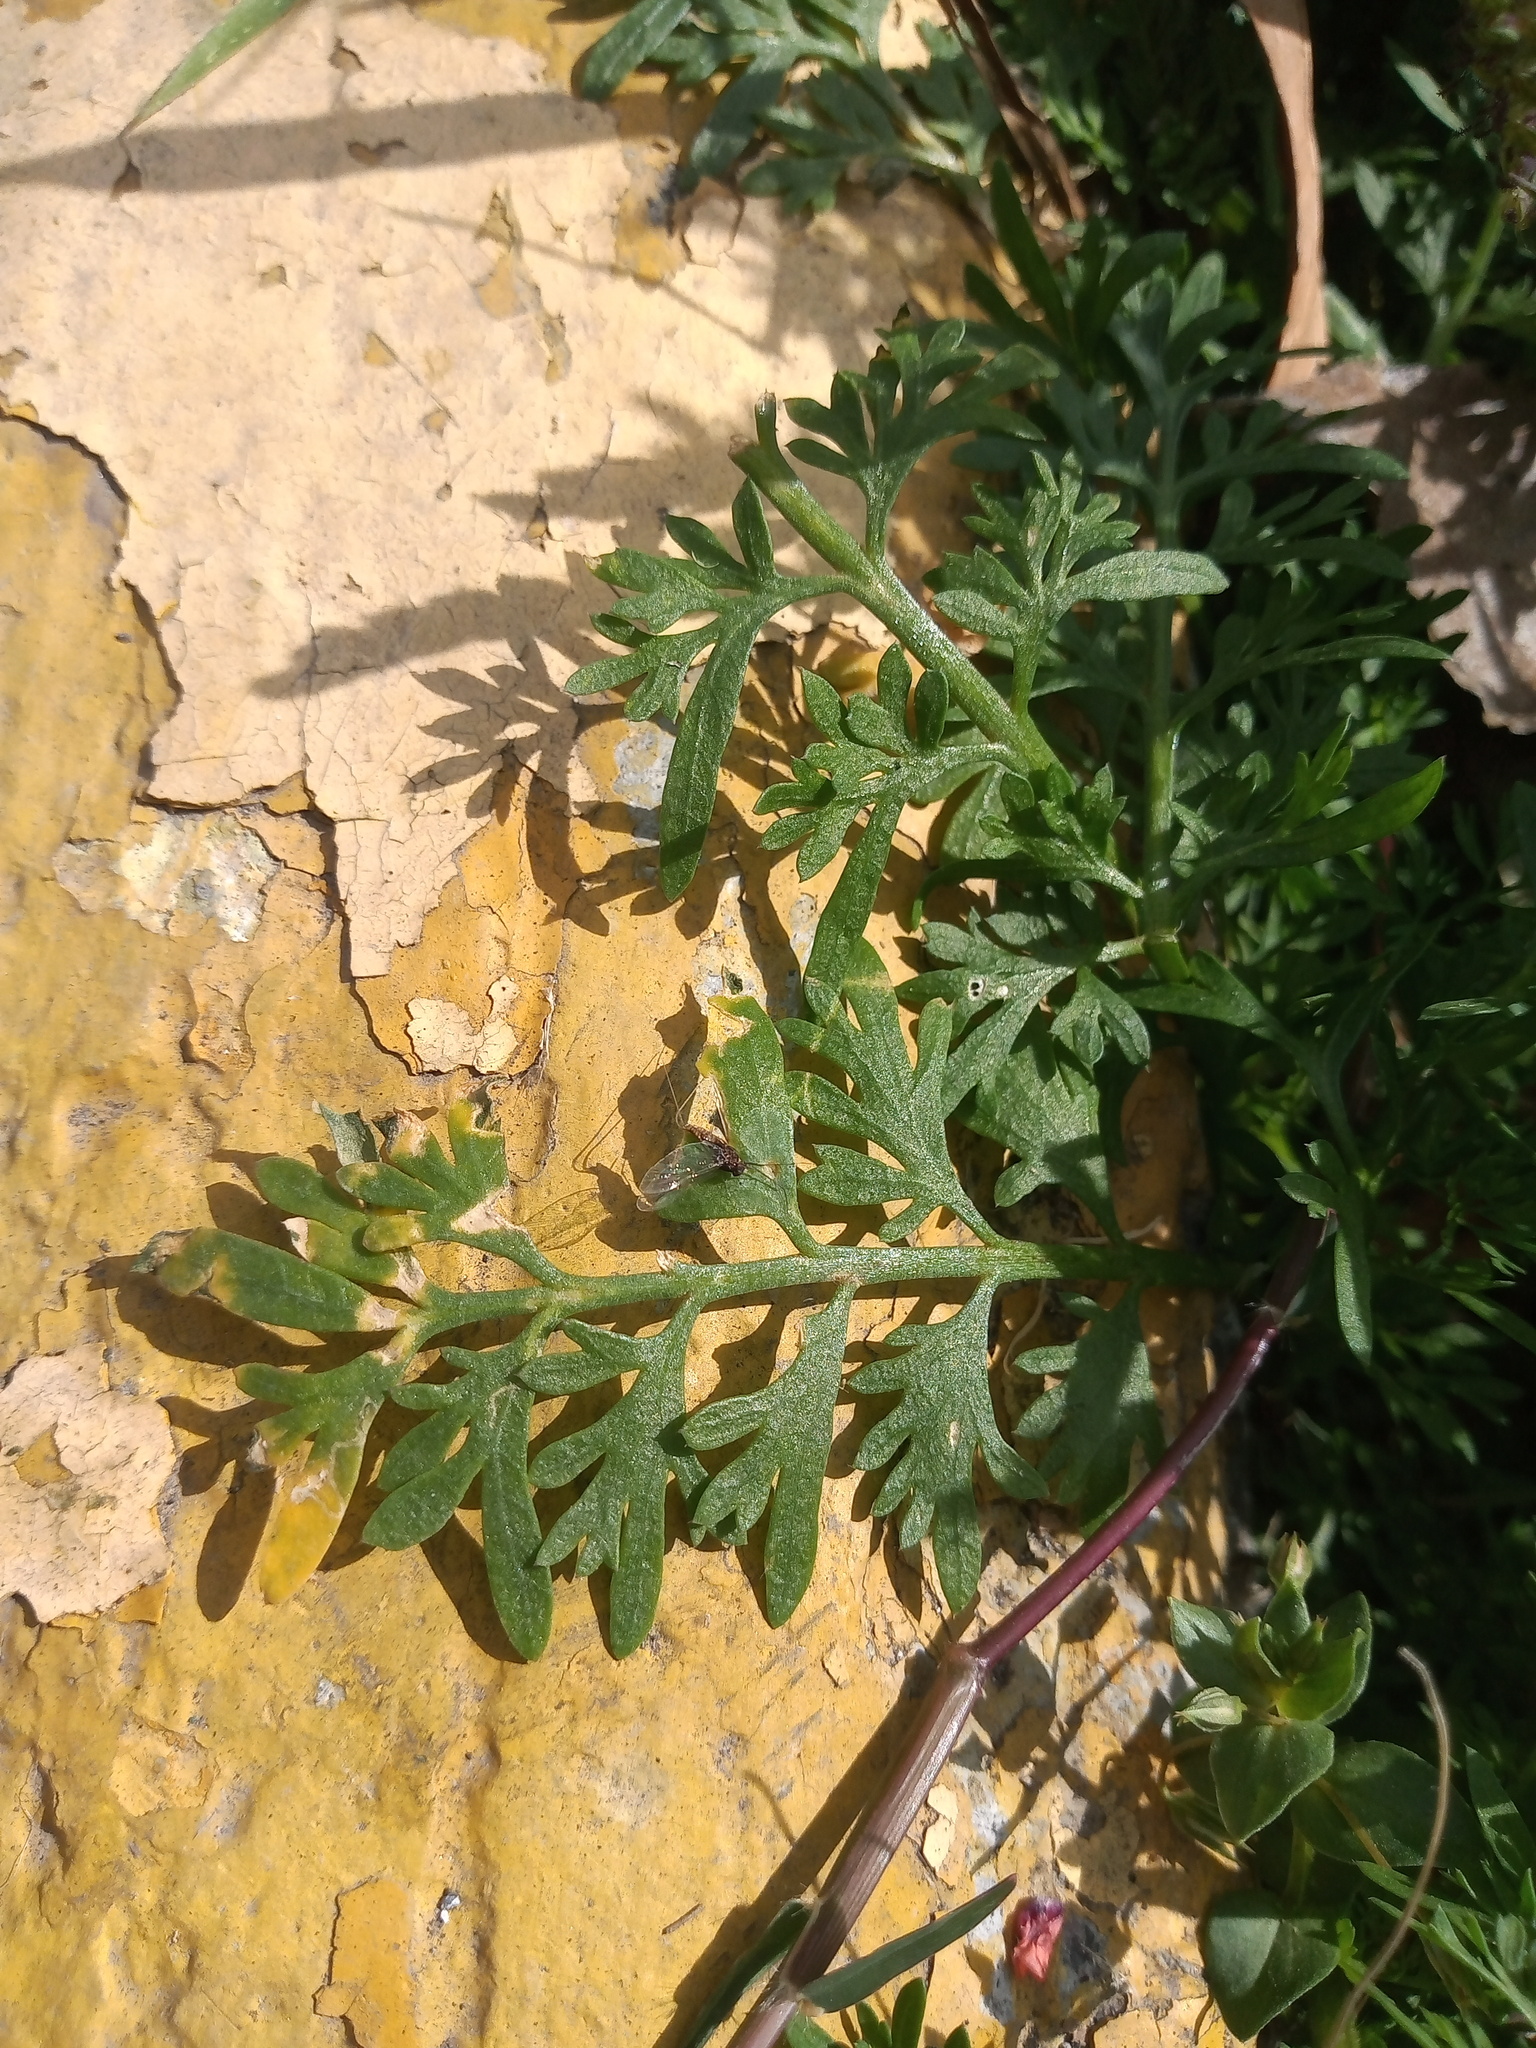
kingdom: Plantae
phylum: Tracheophyta
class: Magnoliopsida
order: Brassicales
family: Brassicaceae
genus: Lepidium
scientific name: Lepidium didymum
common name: Lesser swinecress
